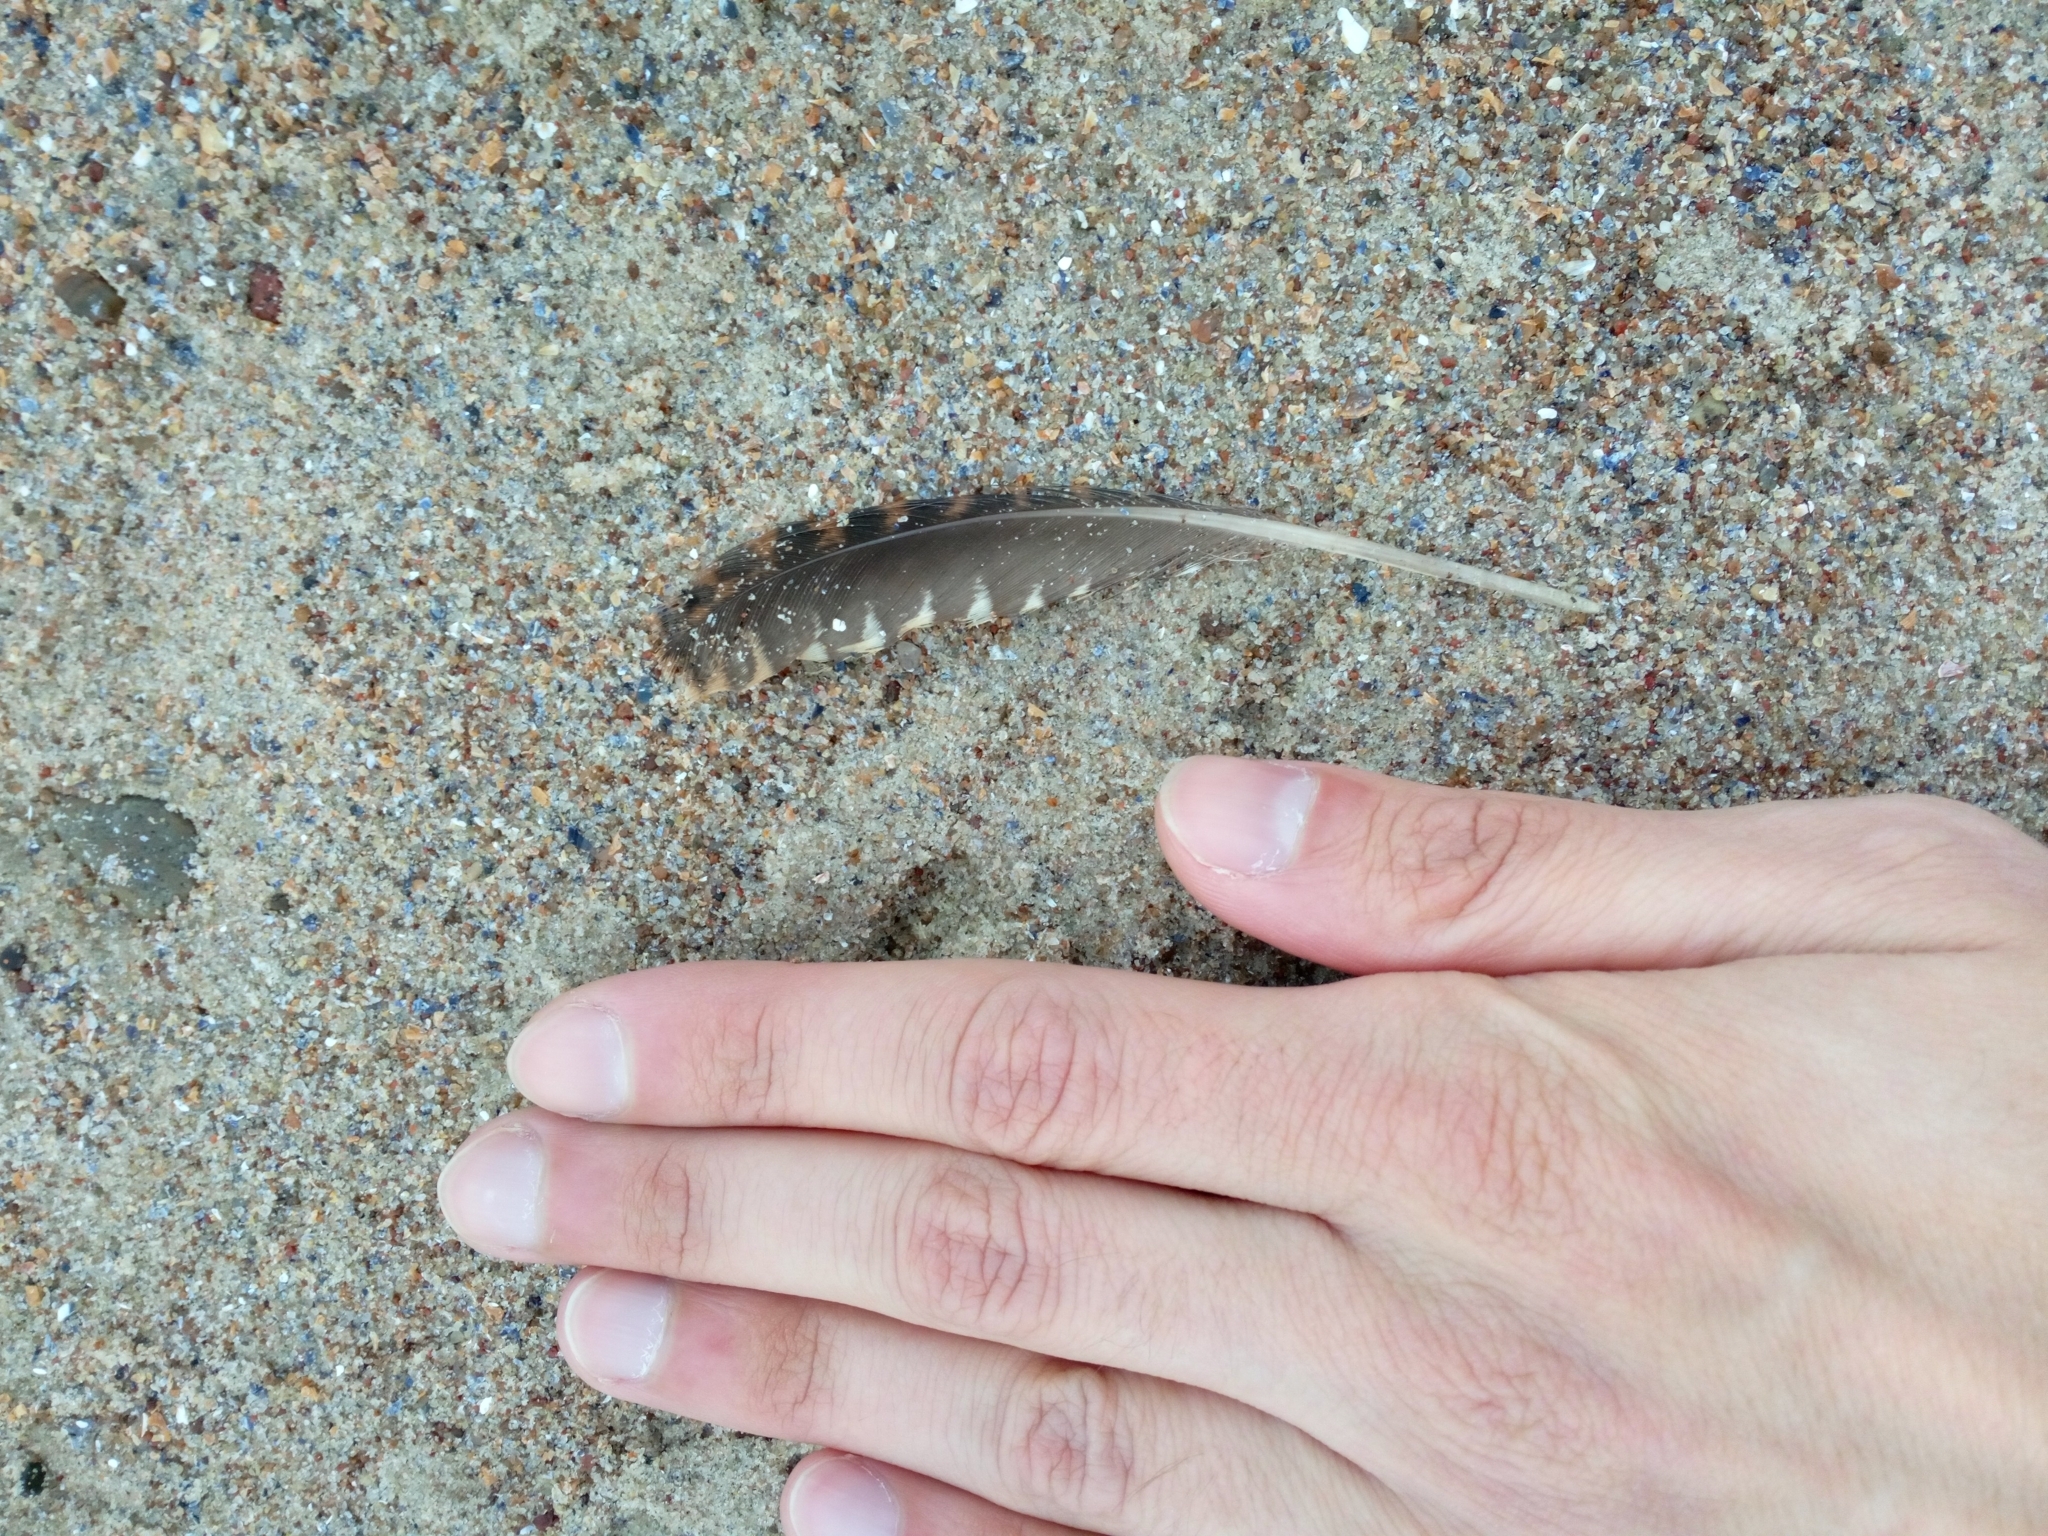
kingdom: Animalia
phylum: Chordata
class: Aves
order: Charadriiformes
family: Scolopacidae
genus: Scolopax
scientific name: Scolopax rusticola
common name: Eurasian woodcock
